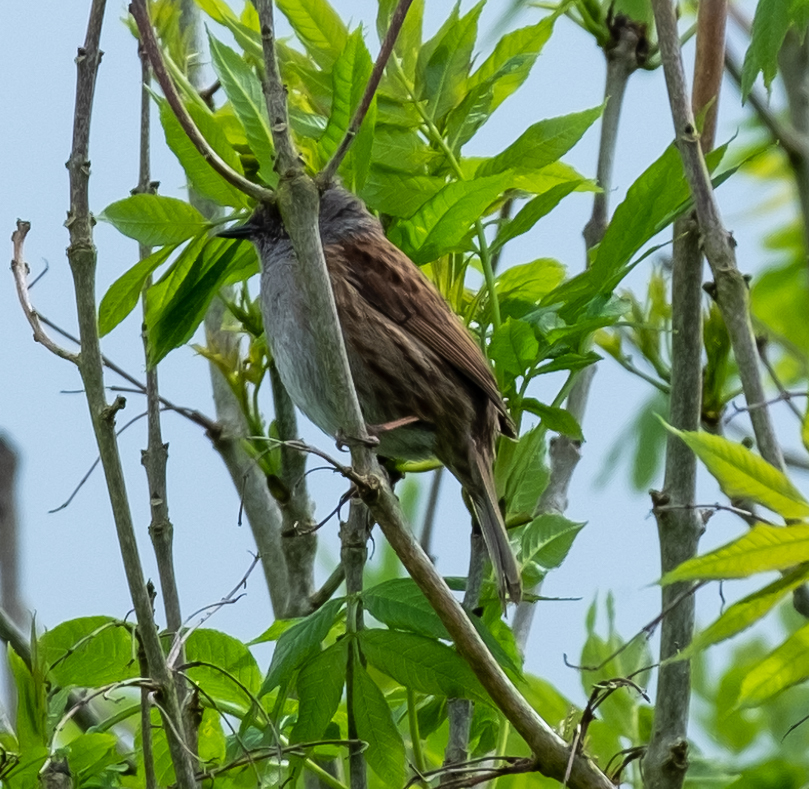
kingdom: Animalia
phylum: Chordata
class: Aves
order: Passeriformes
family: Prunellidae
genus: Prunella
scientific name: Prunella modularis
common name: Dunnock
